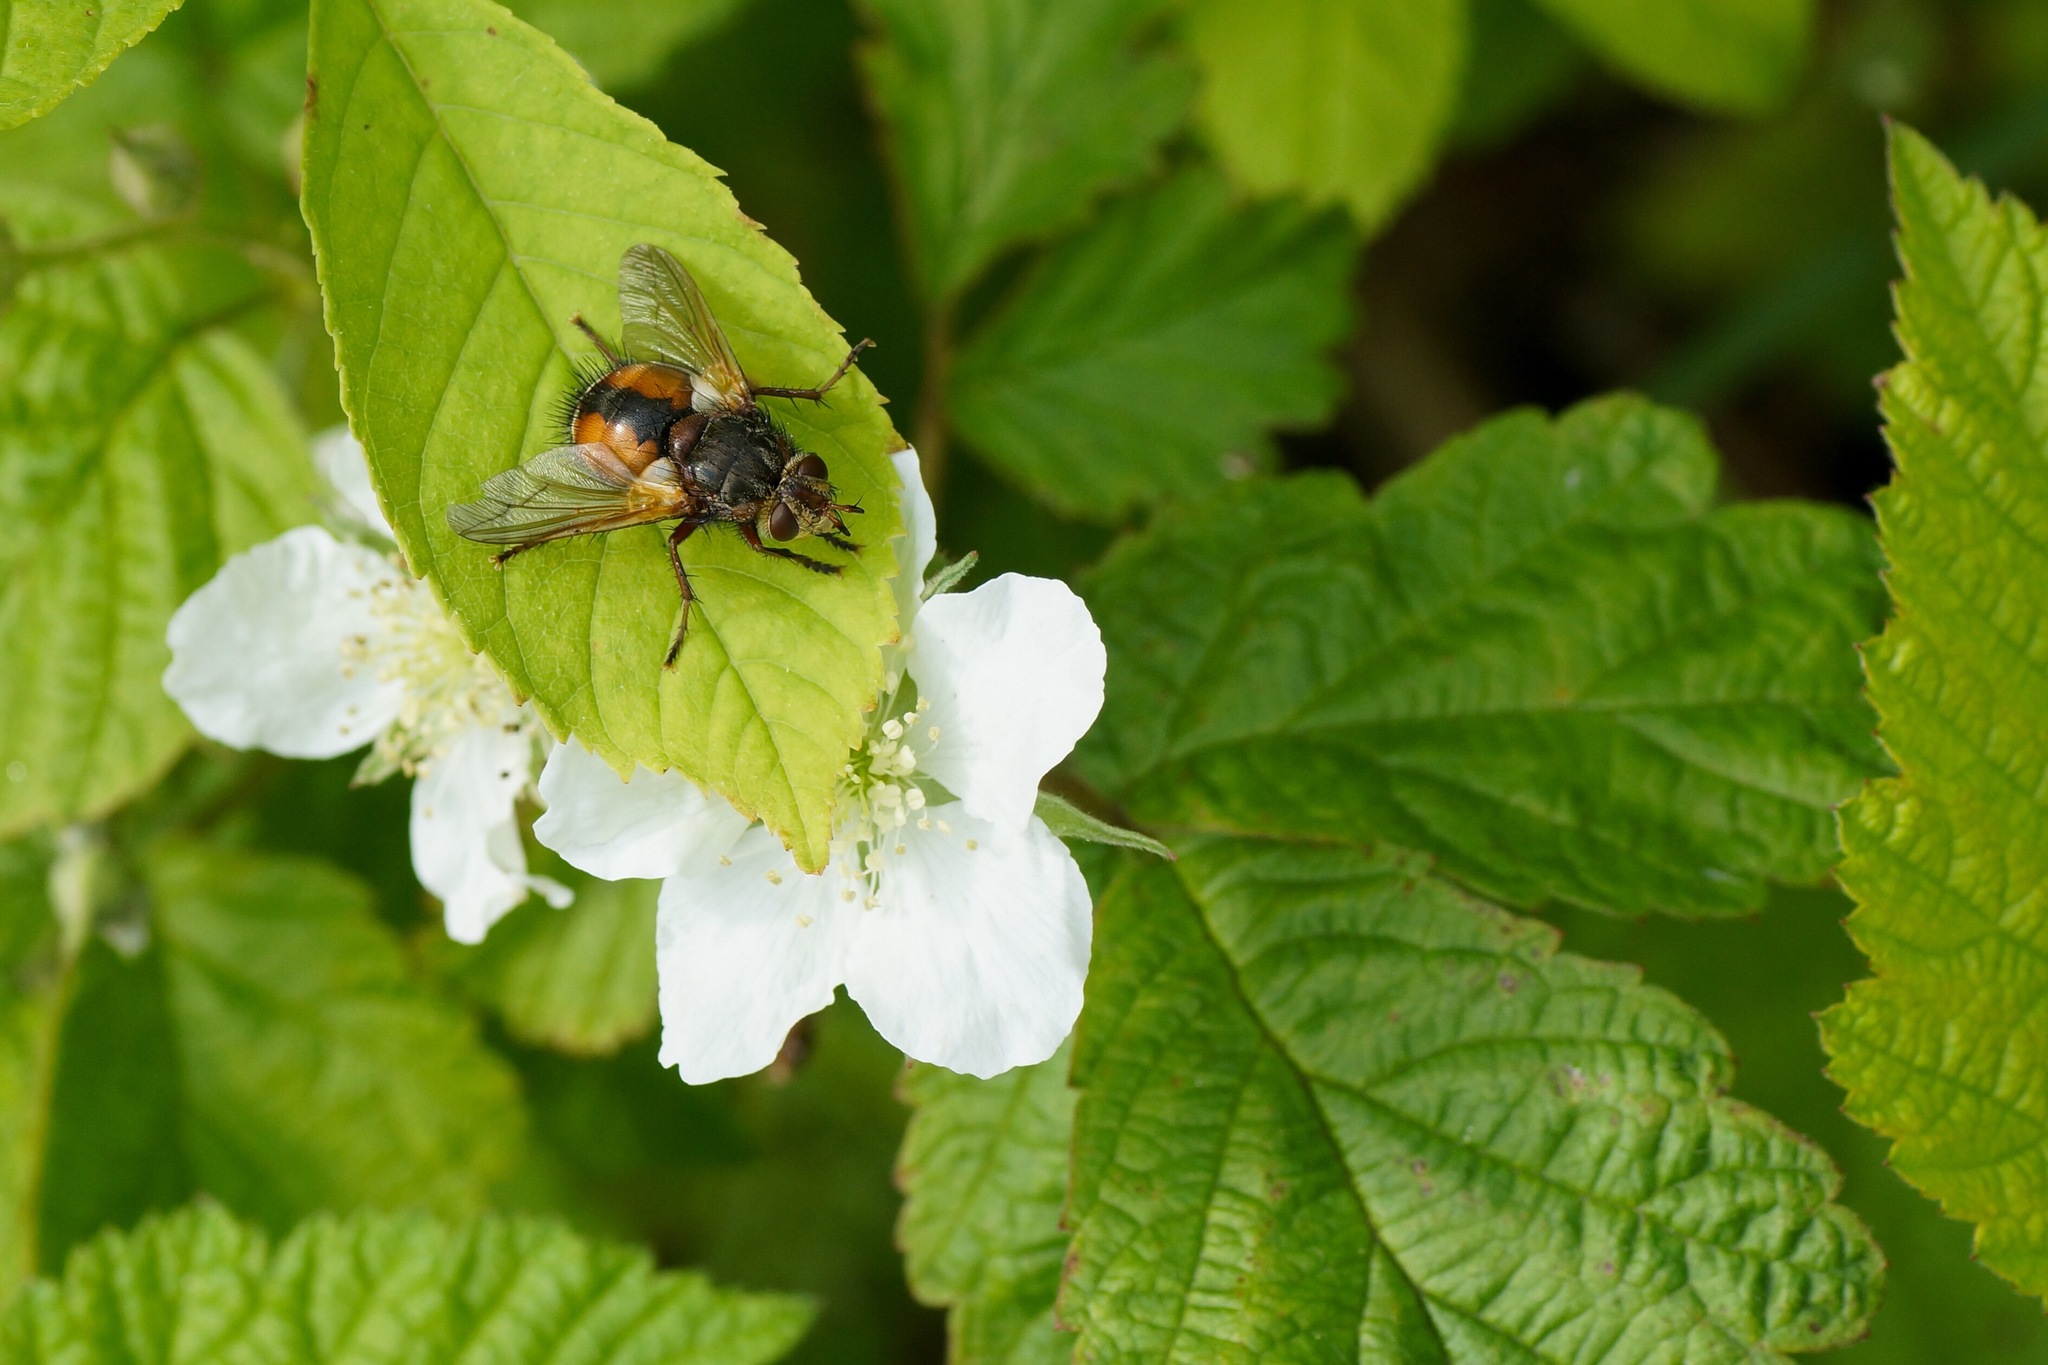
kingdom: Animalia
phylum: Arthropoda
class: Insecta
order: Diptera
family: Tachinidae
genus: Tachina
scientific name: Tachina fera
